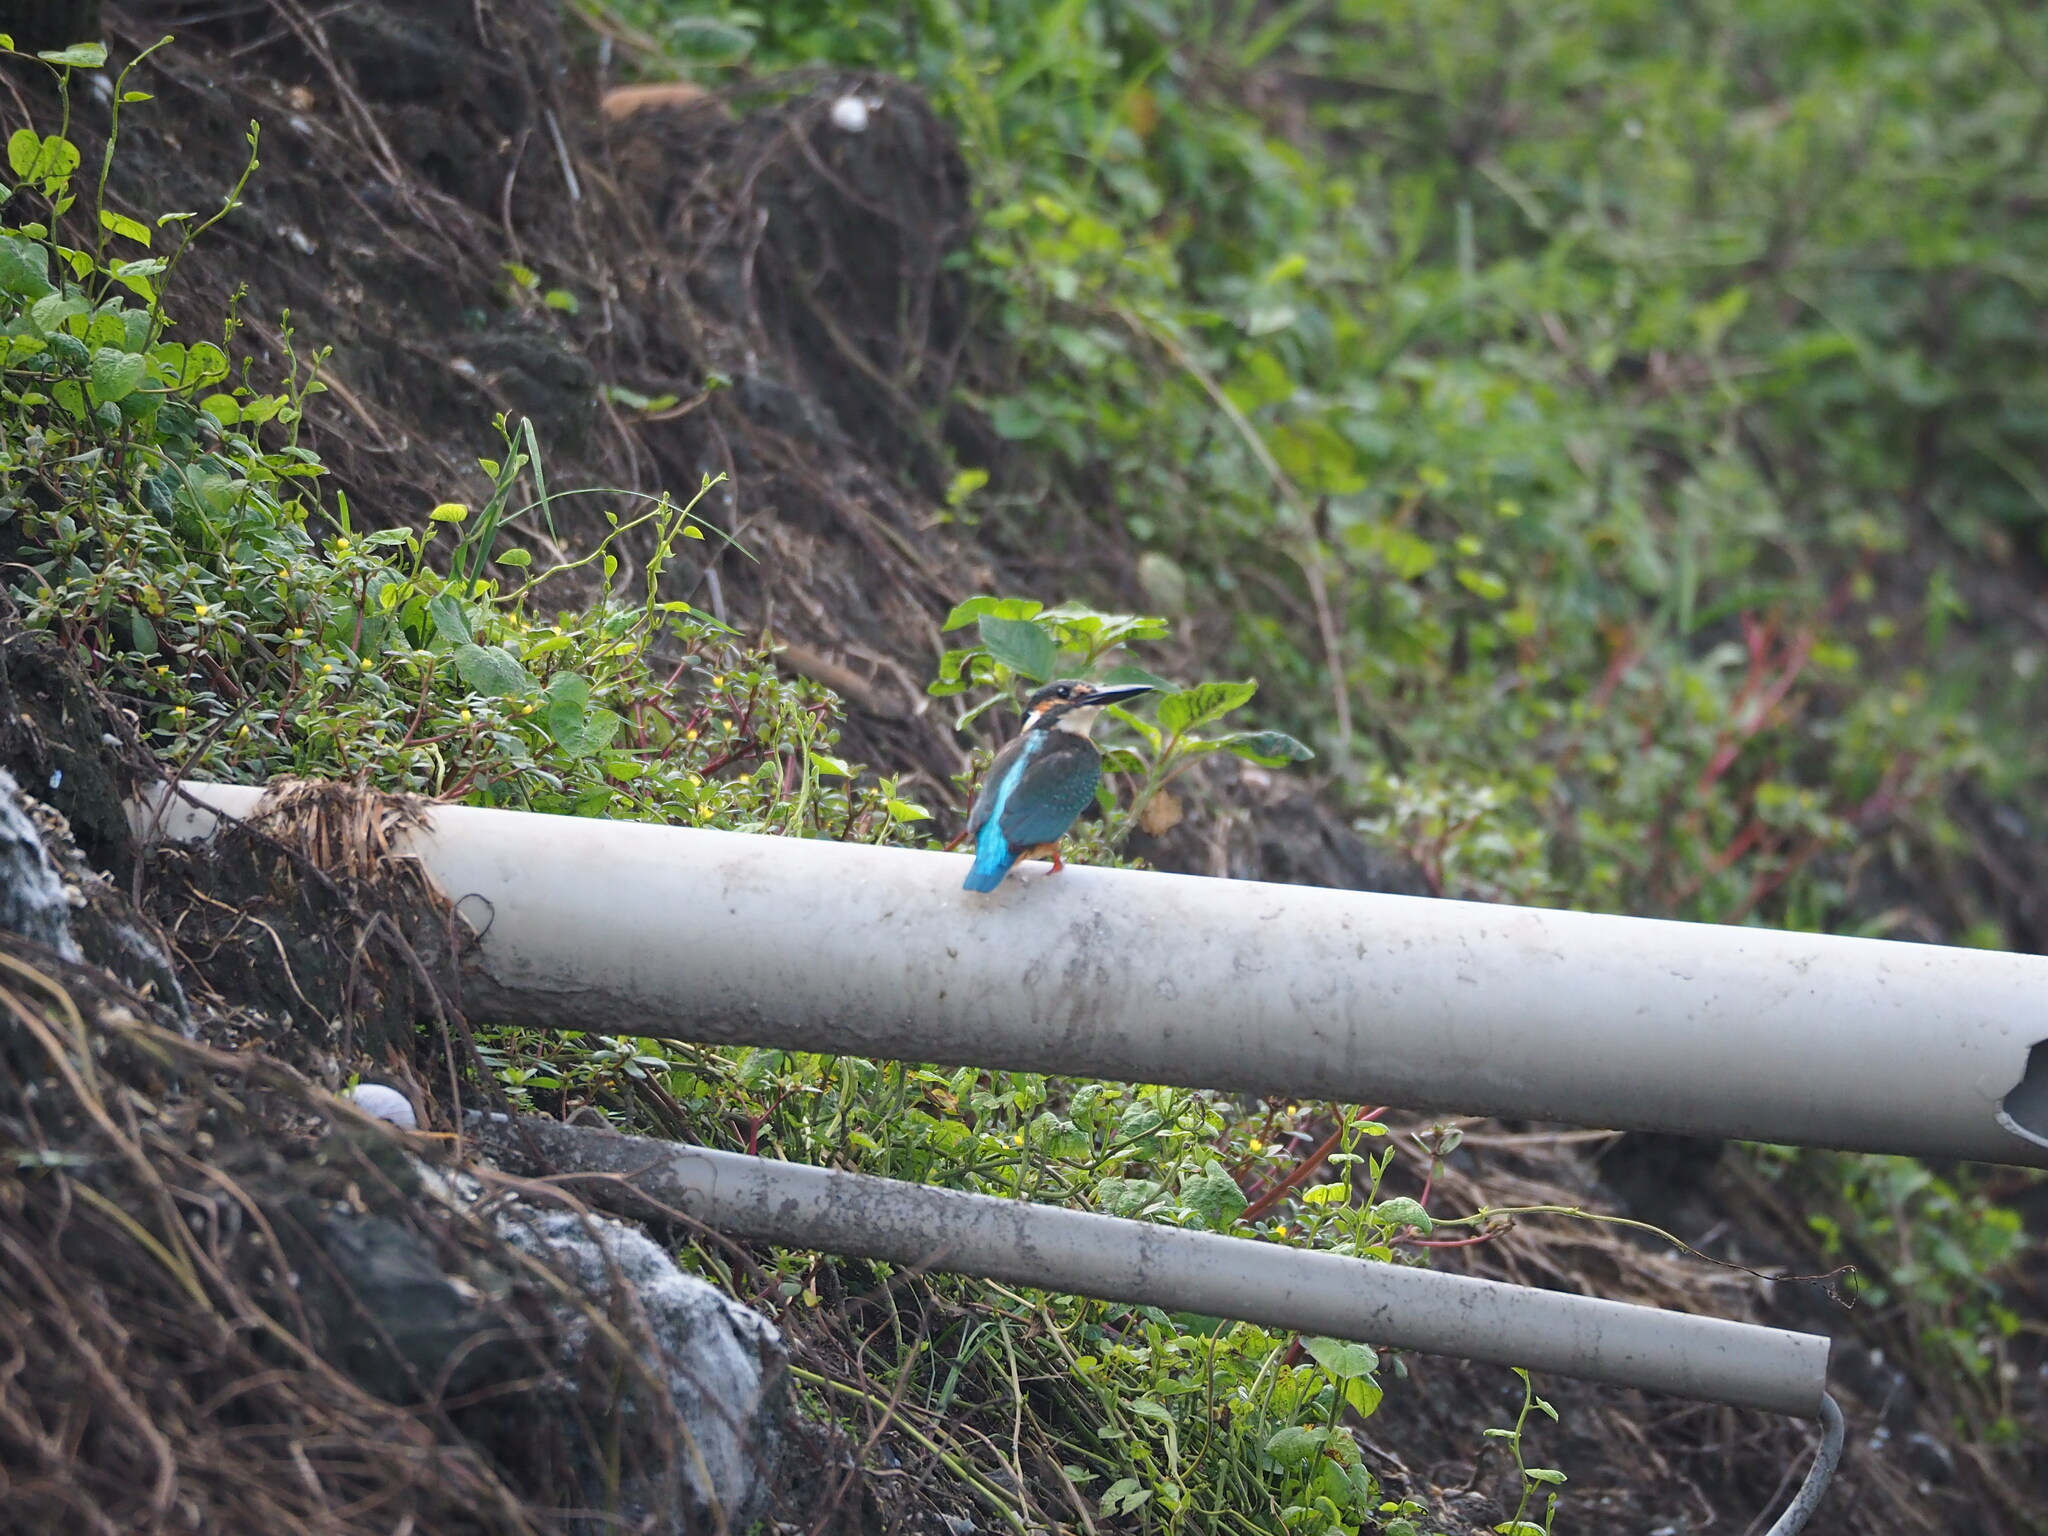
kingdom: Animalia
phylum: Chordata
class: Aves
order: Coraciiformes
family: Alcedinidae
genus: Alcedo
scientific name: Alcedo atthis
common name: Common kingfisher
